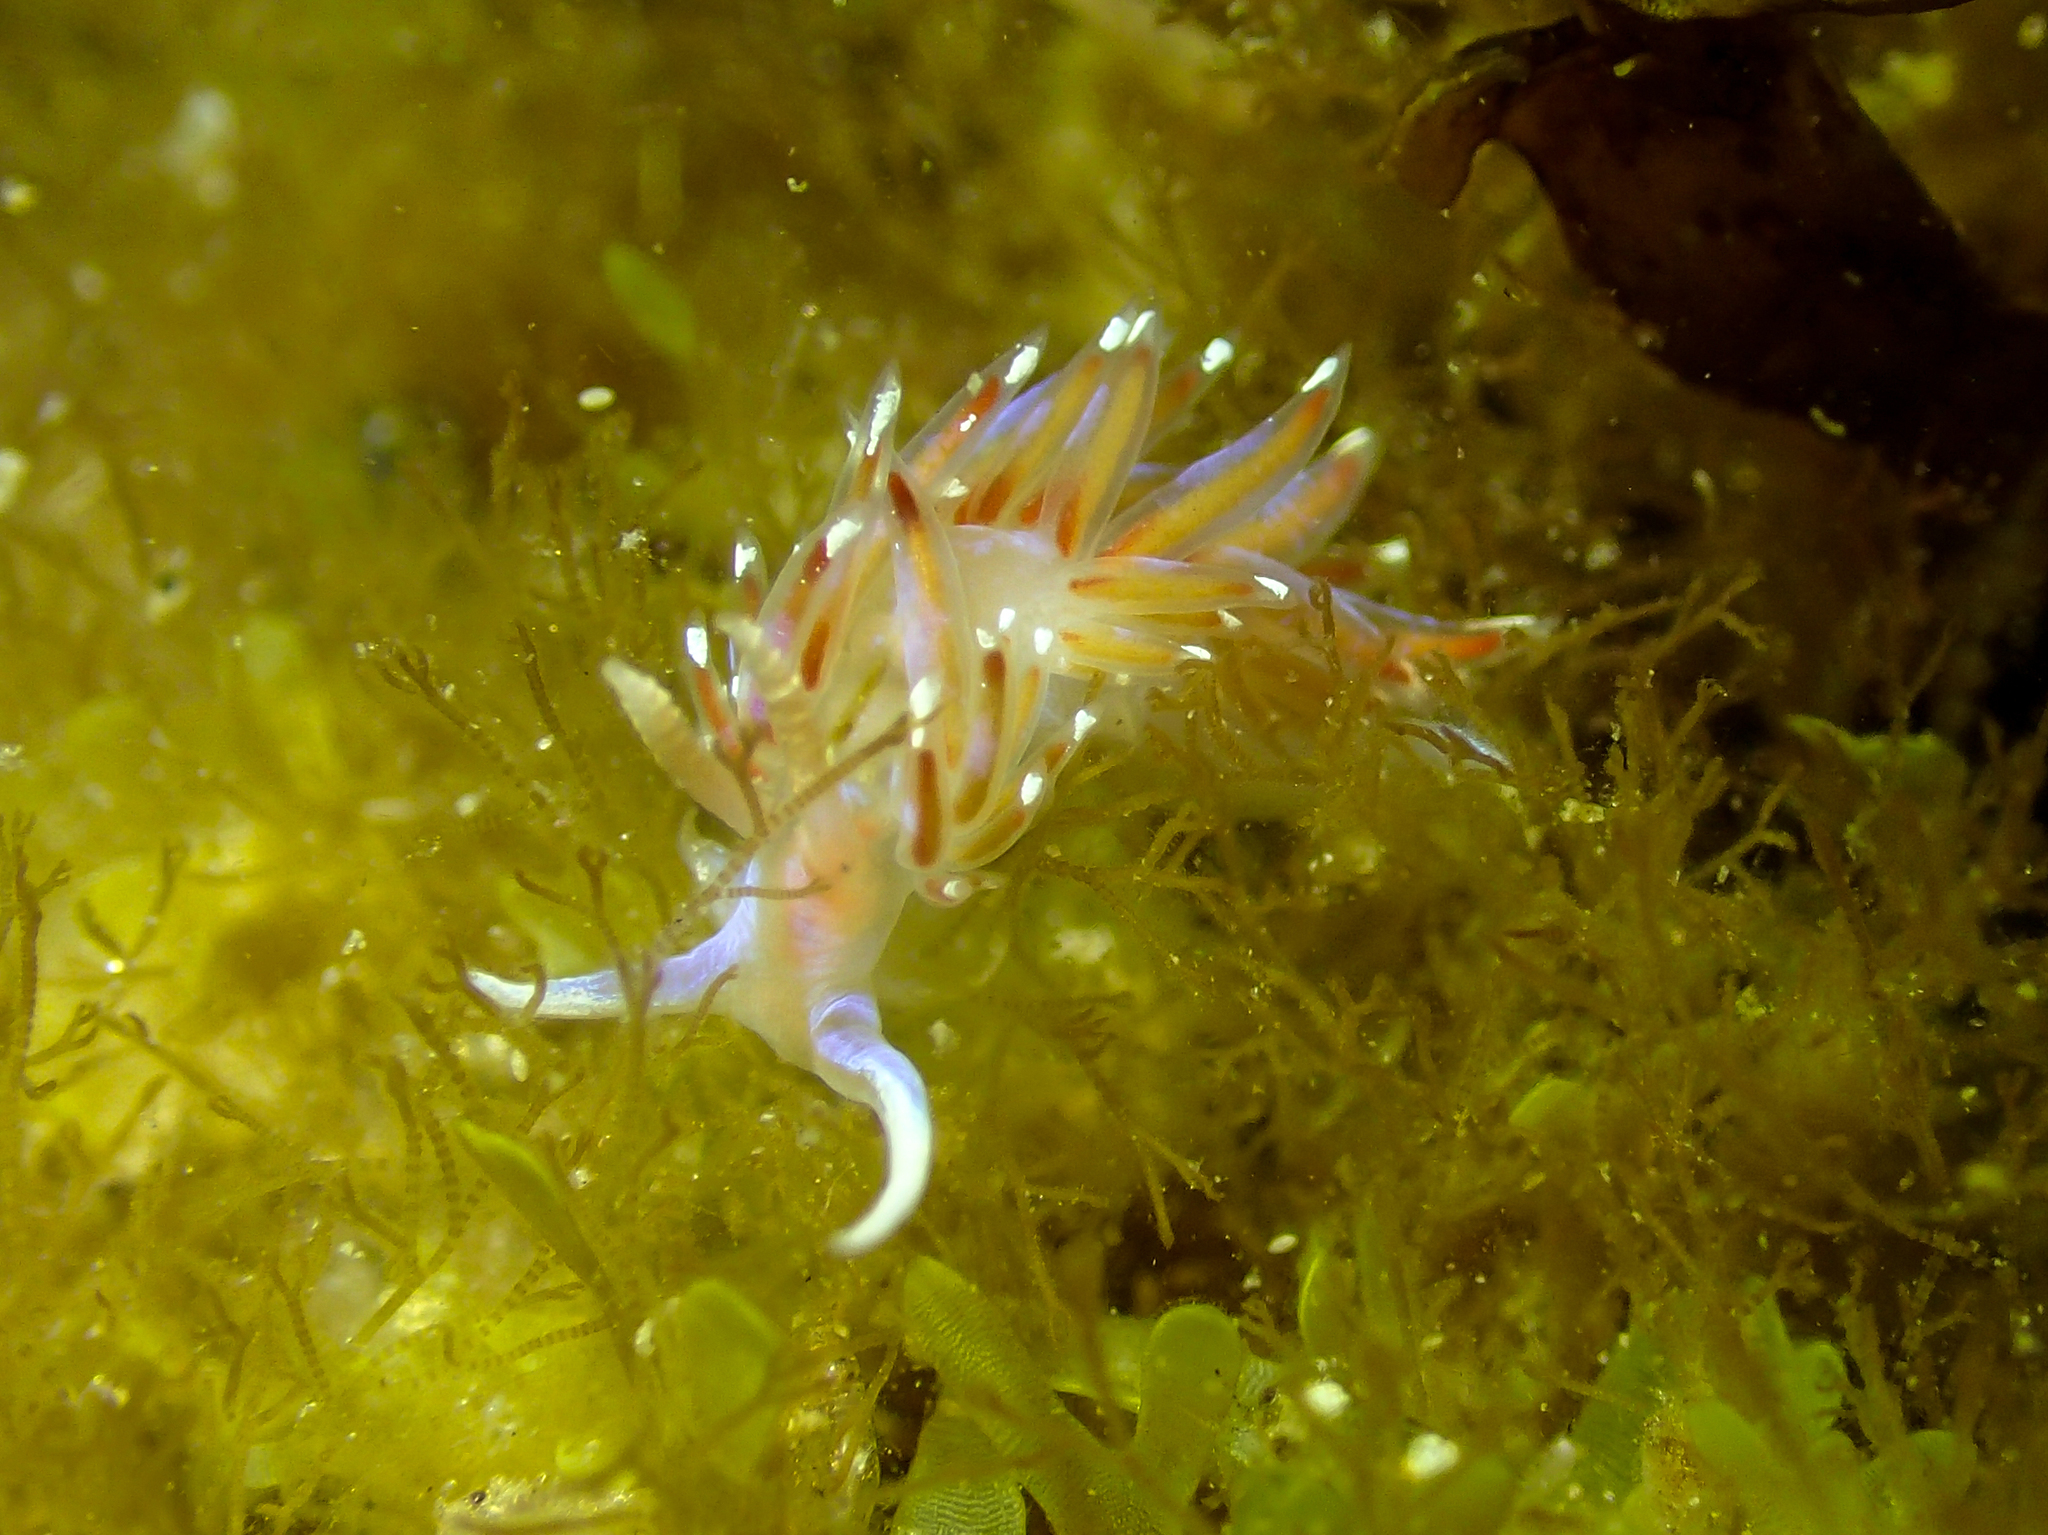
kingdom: Animalia
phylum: Mollusca
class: Gastropoda
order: Nudibranchia
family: Facelinidae
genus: Facelina
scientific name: Facelina auriculata
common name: Slender facelina
